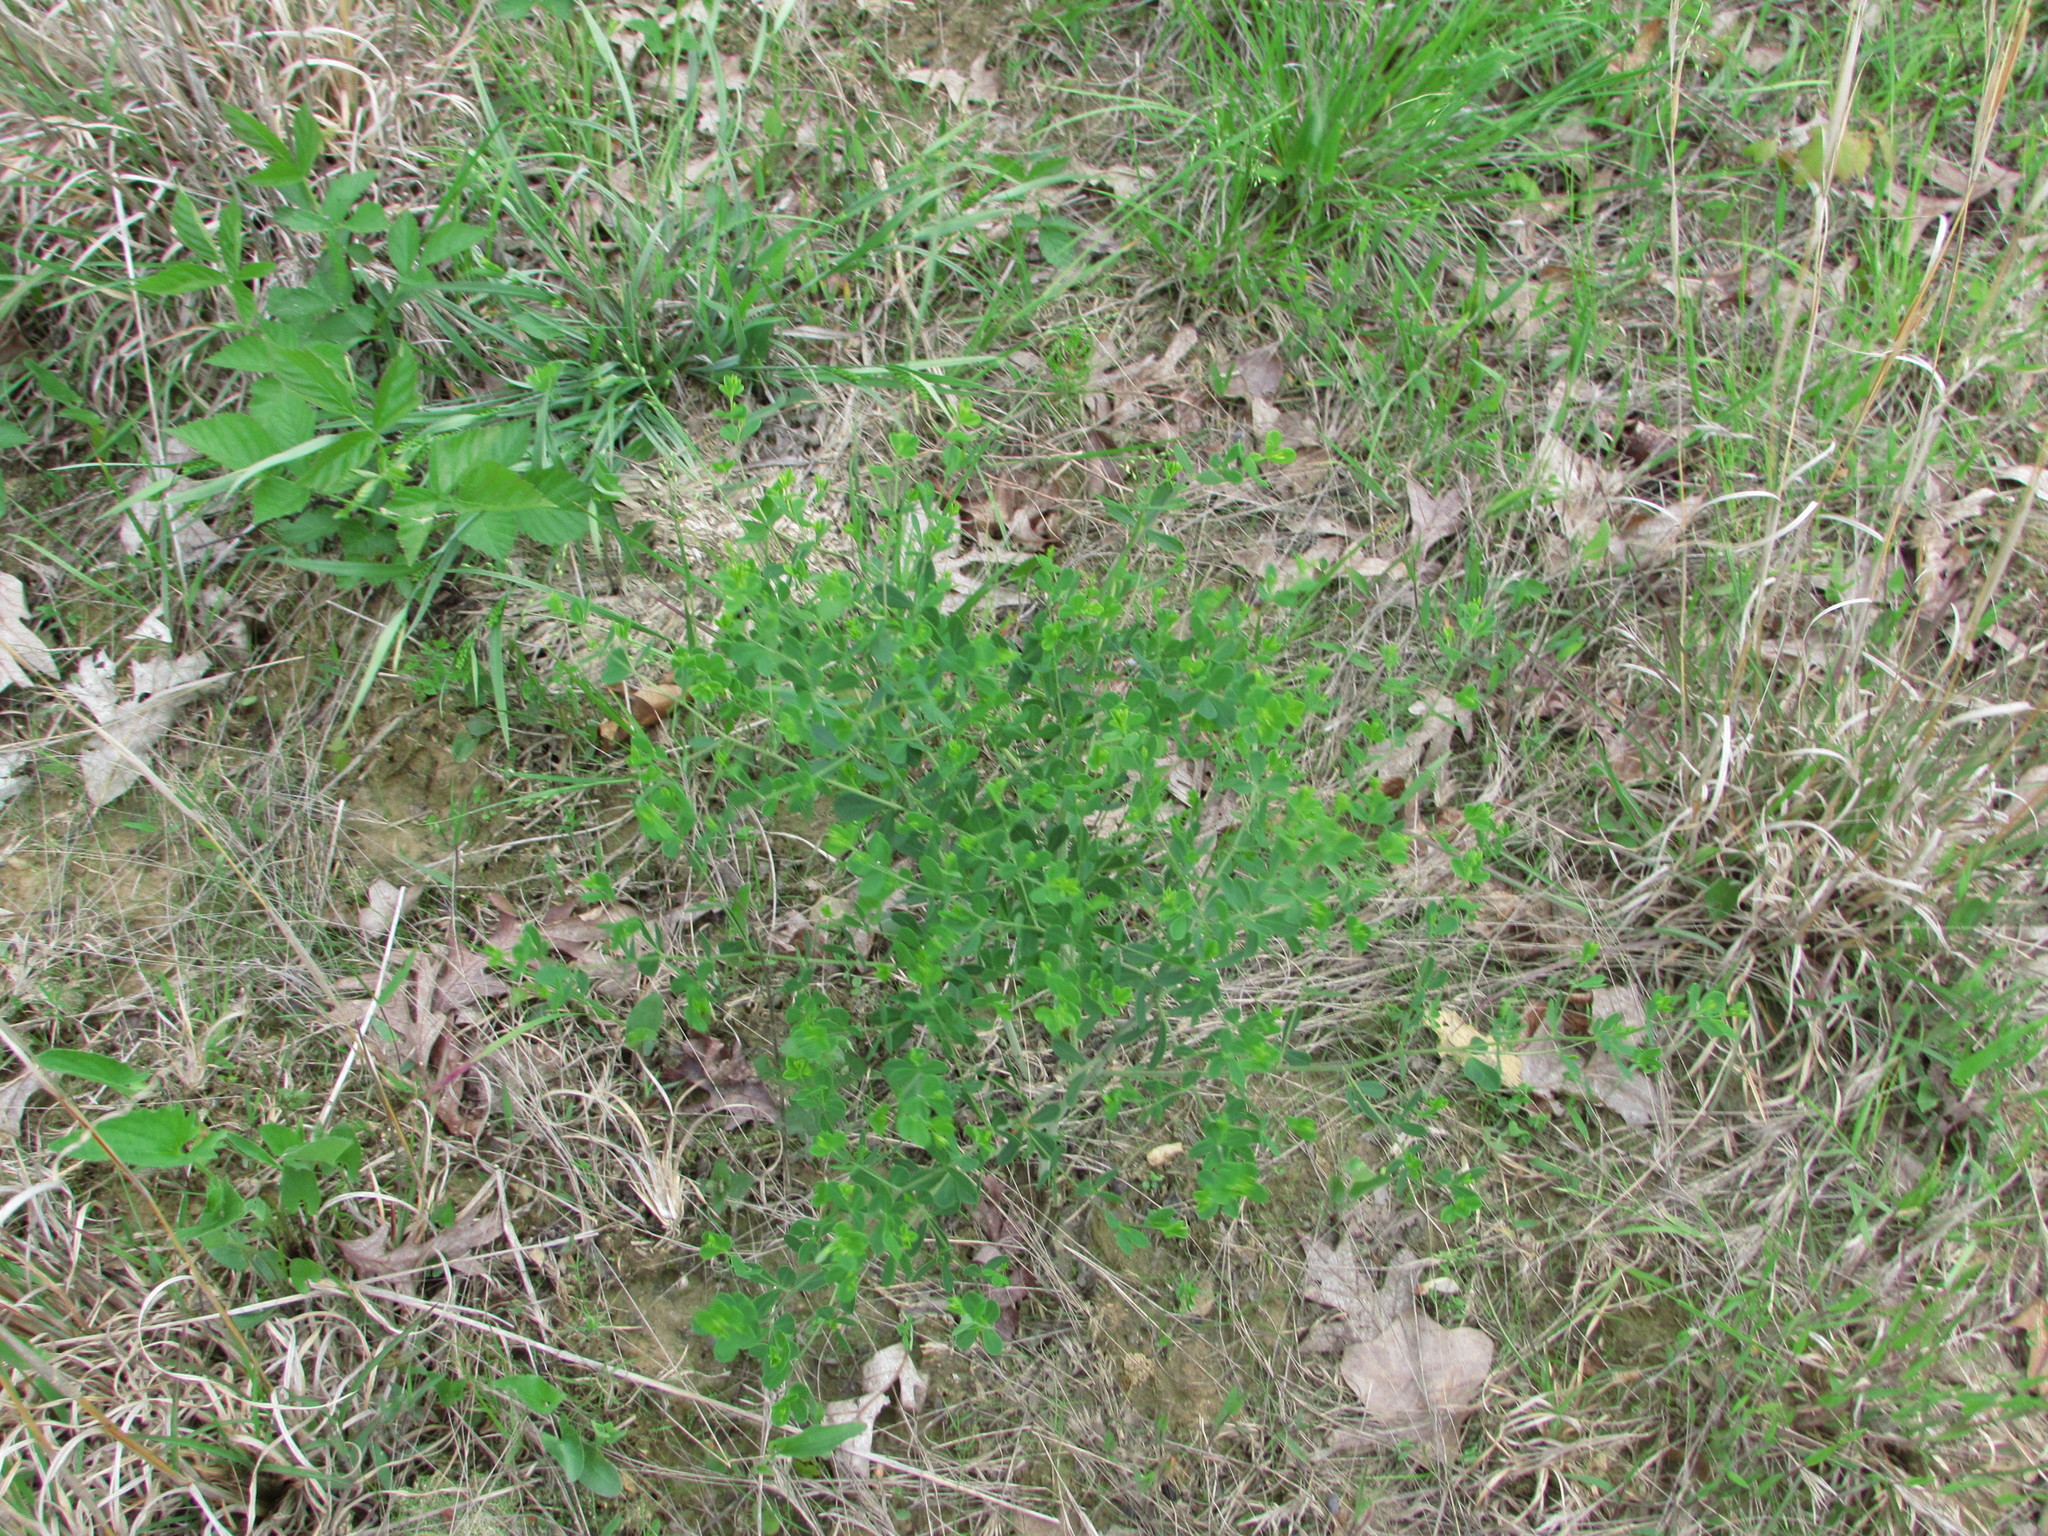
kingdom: Plantae
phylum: Tracheophyta
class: Magnoliopsida
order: Fabales
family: Fabaceae
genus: Baptisia
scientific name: Baptisia tinctoria
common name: Wild indigo
